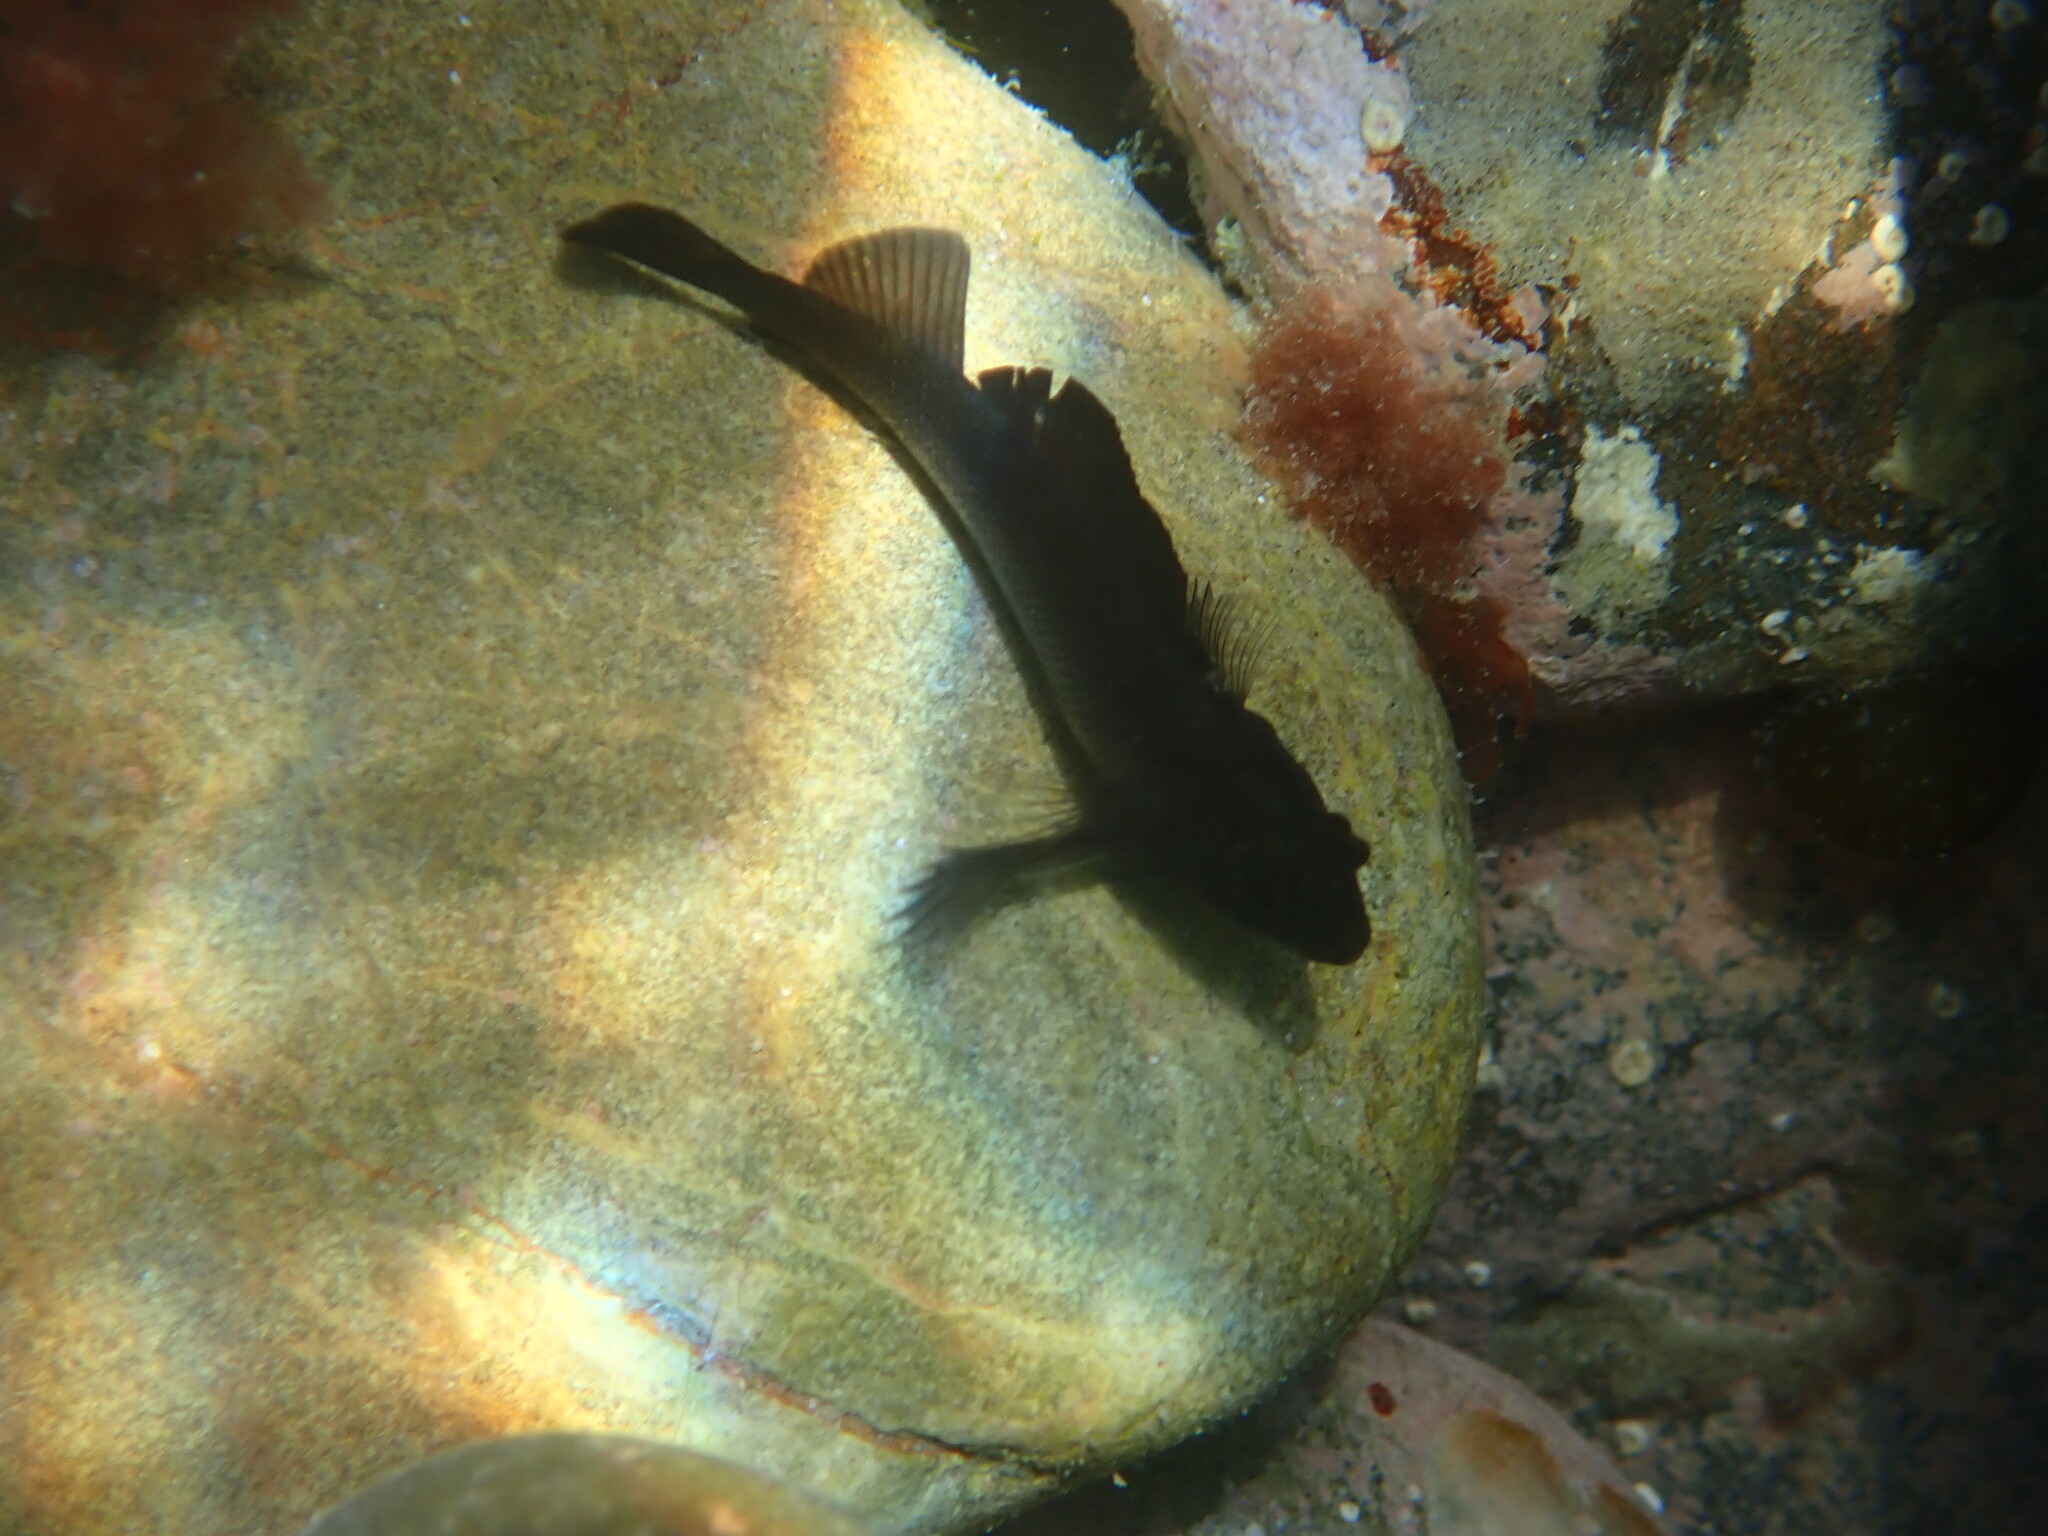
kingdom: Animalia
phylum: Chordata
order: Perciformes
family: Tripterygiidae
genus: Forsterygion
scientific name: Forsterygion lapillum
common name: Common triplefin
